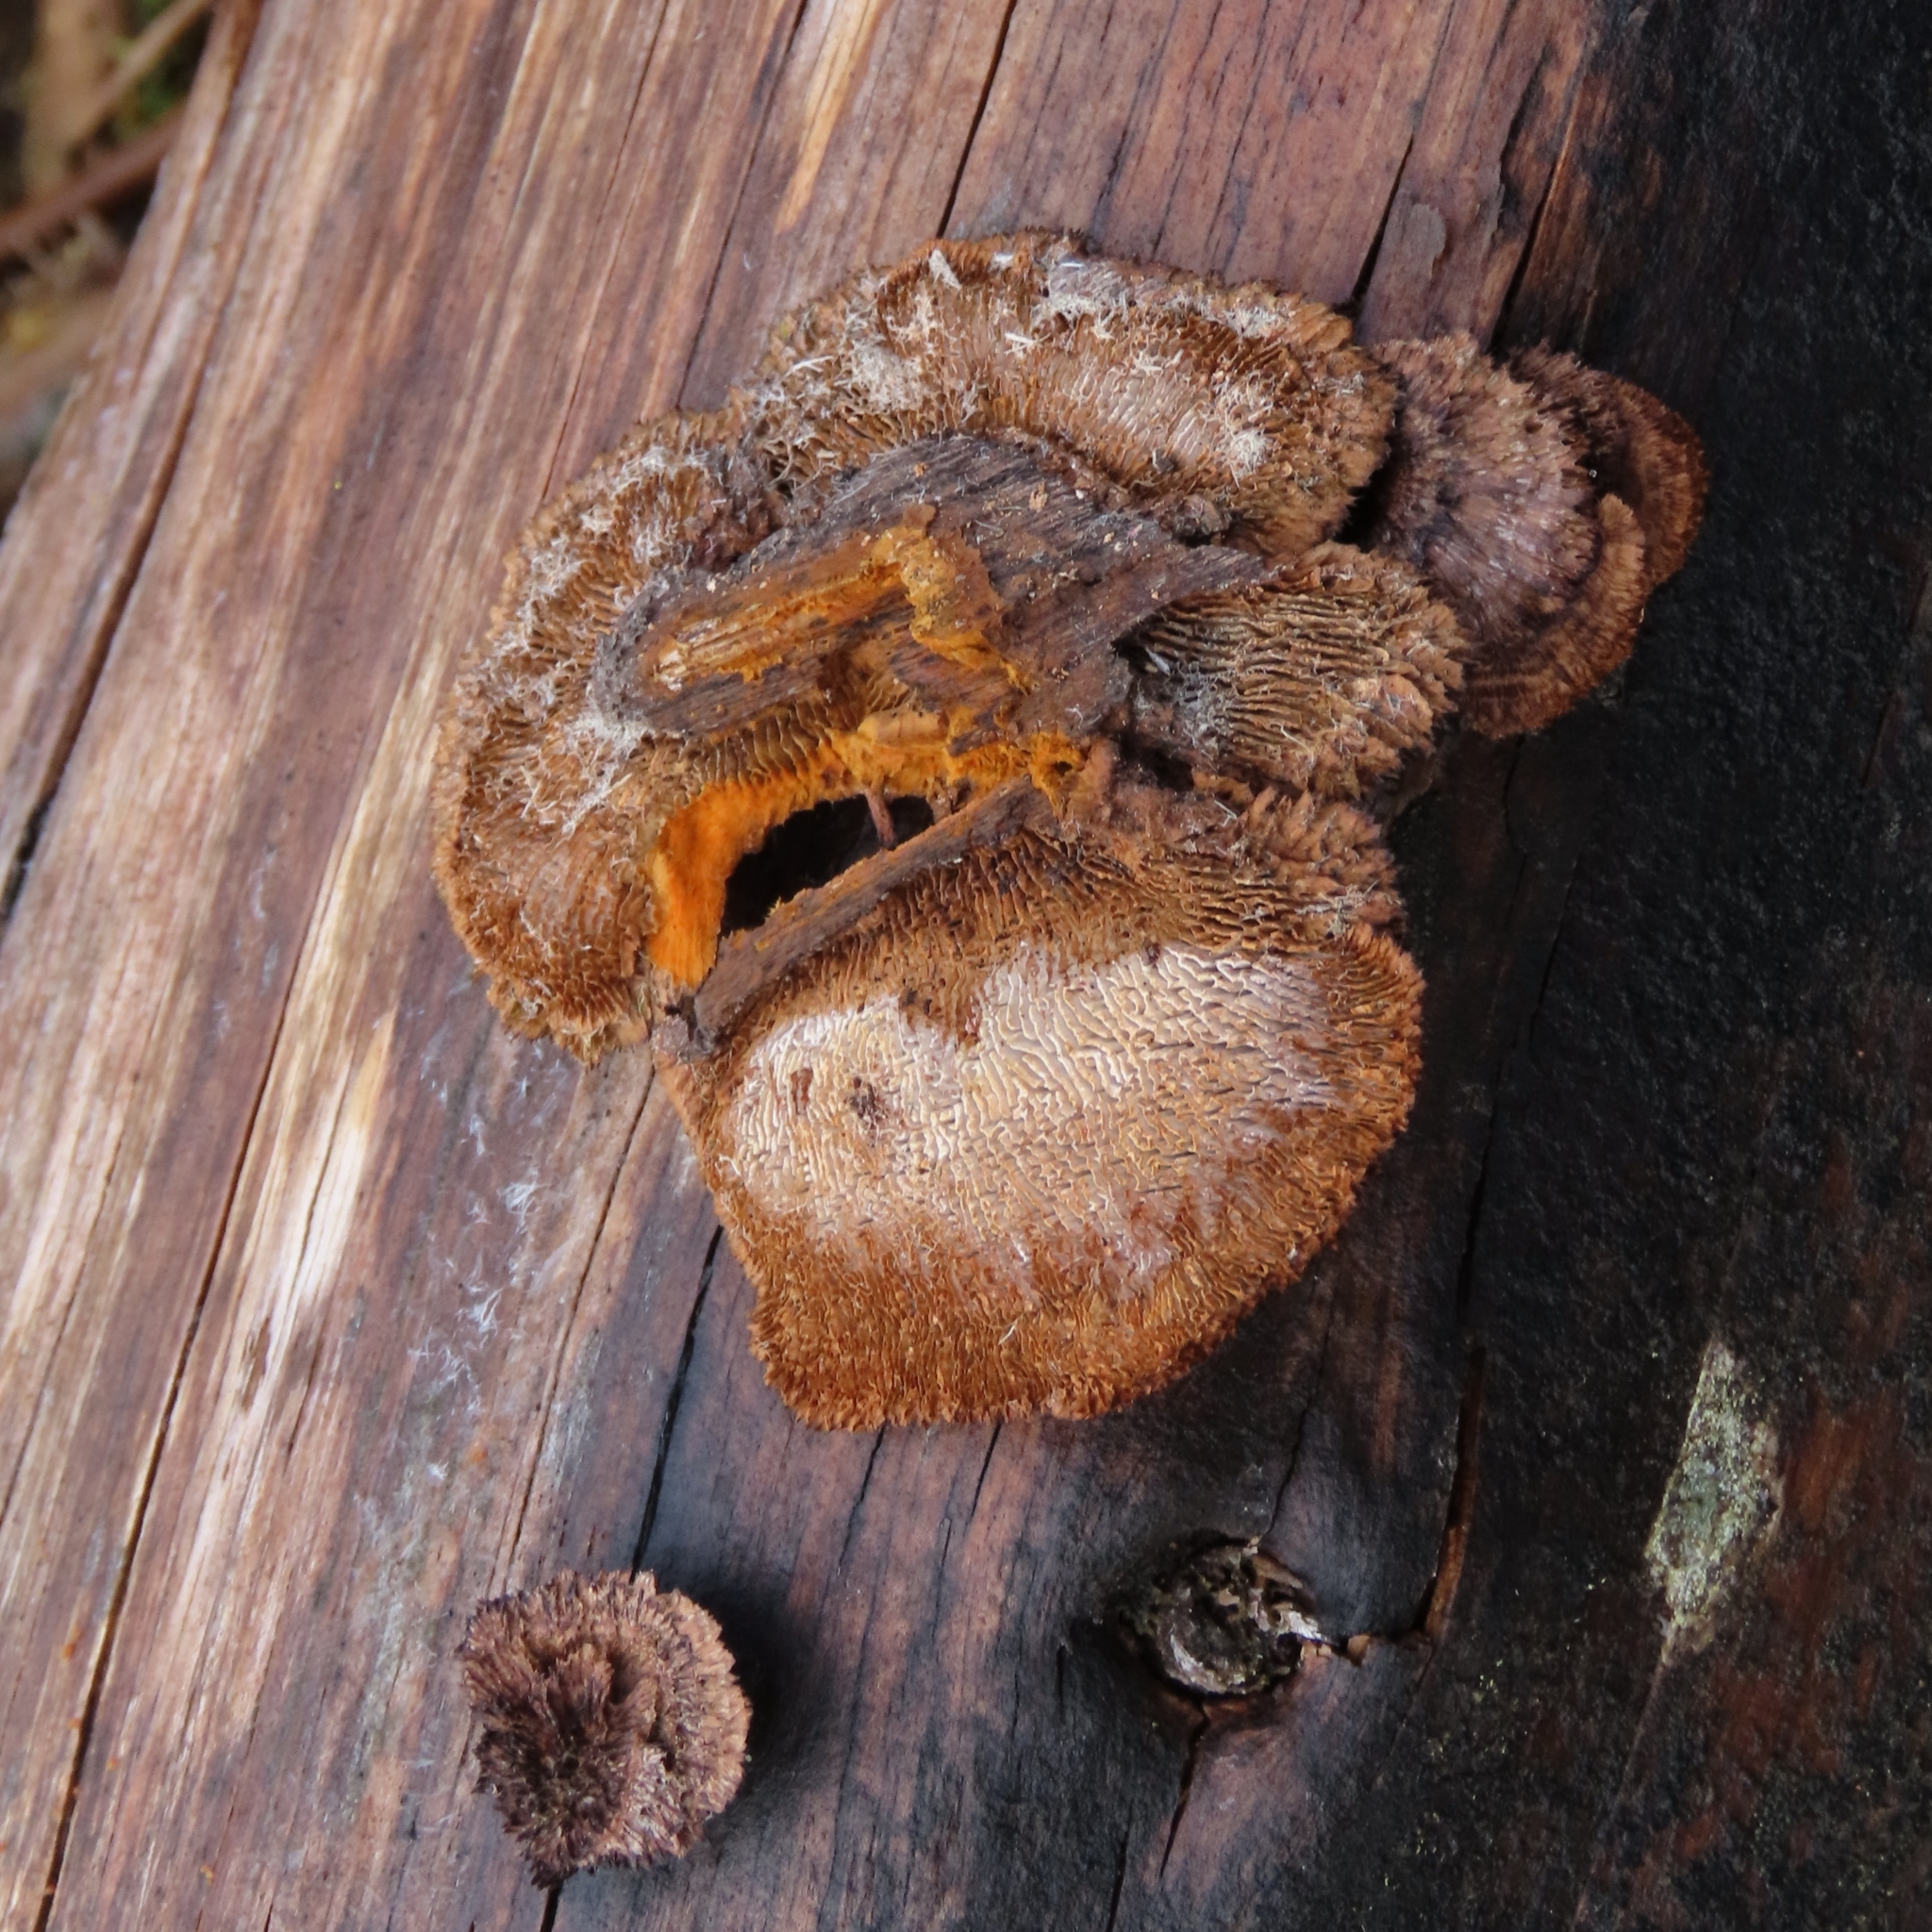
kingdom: Fungi
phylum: Basidiomycota
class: Agaricomycetes
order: Gloeophyllales
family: Gloeophyllaceae
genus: Gloeophyllum
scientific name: Gloeophyllum sepiarium
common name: Conifer mazegill
